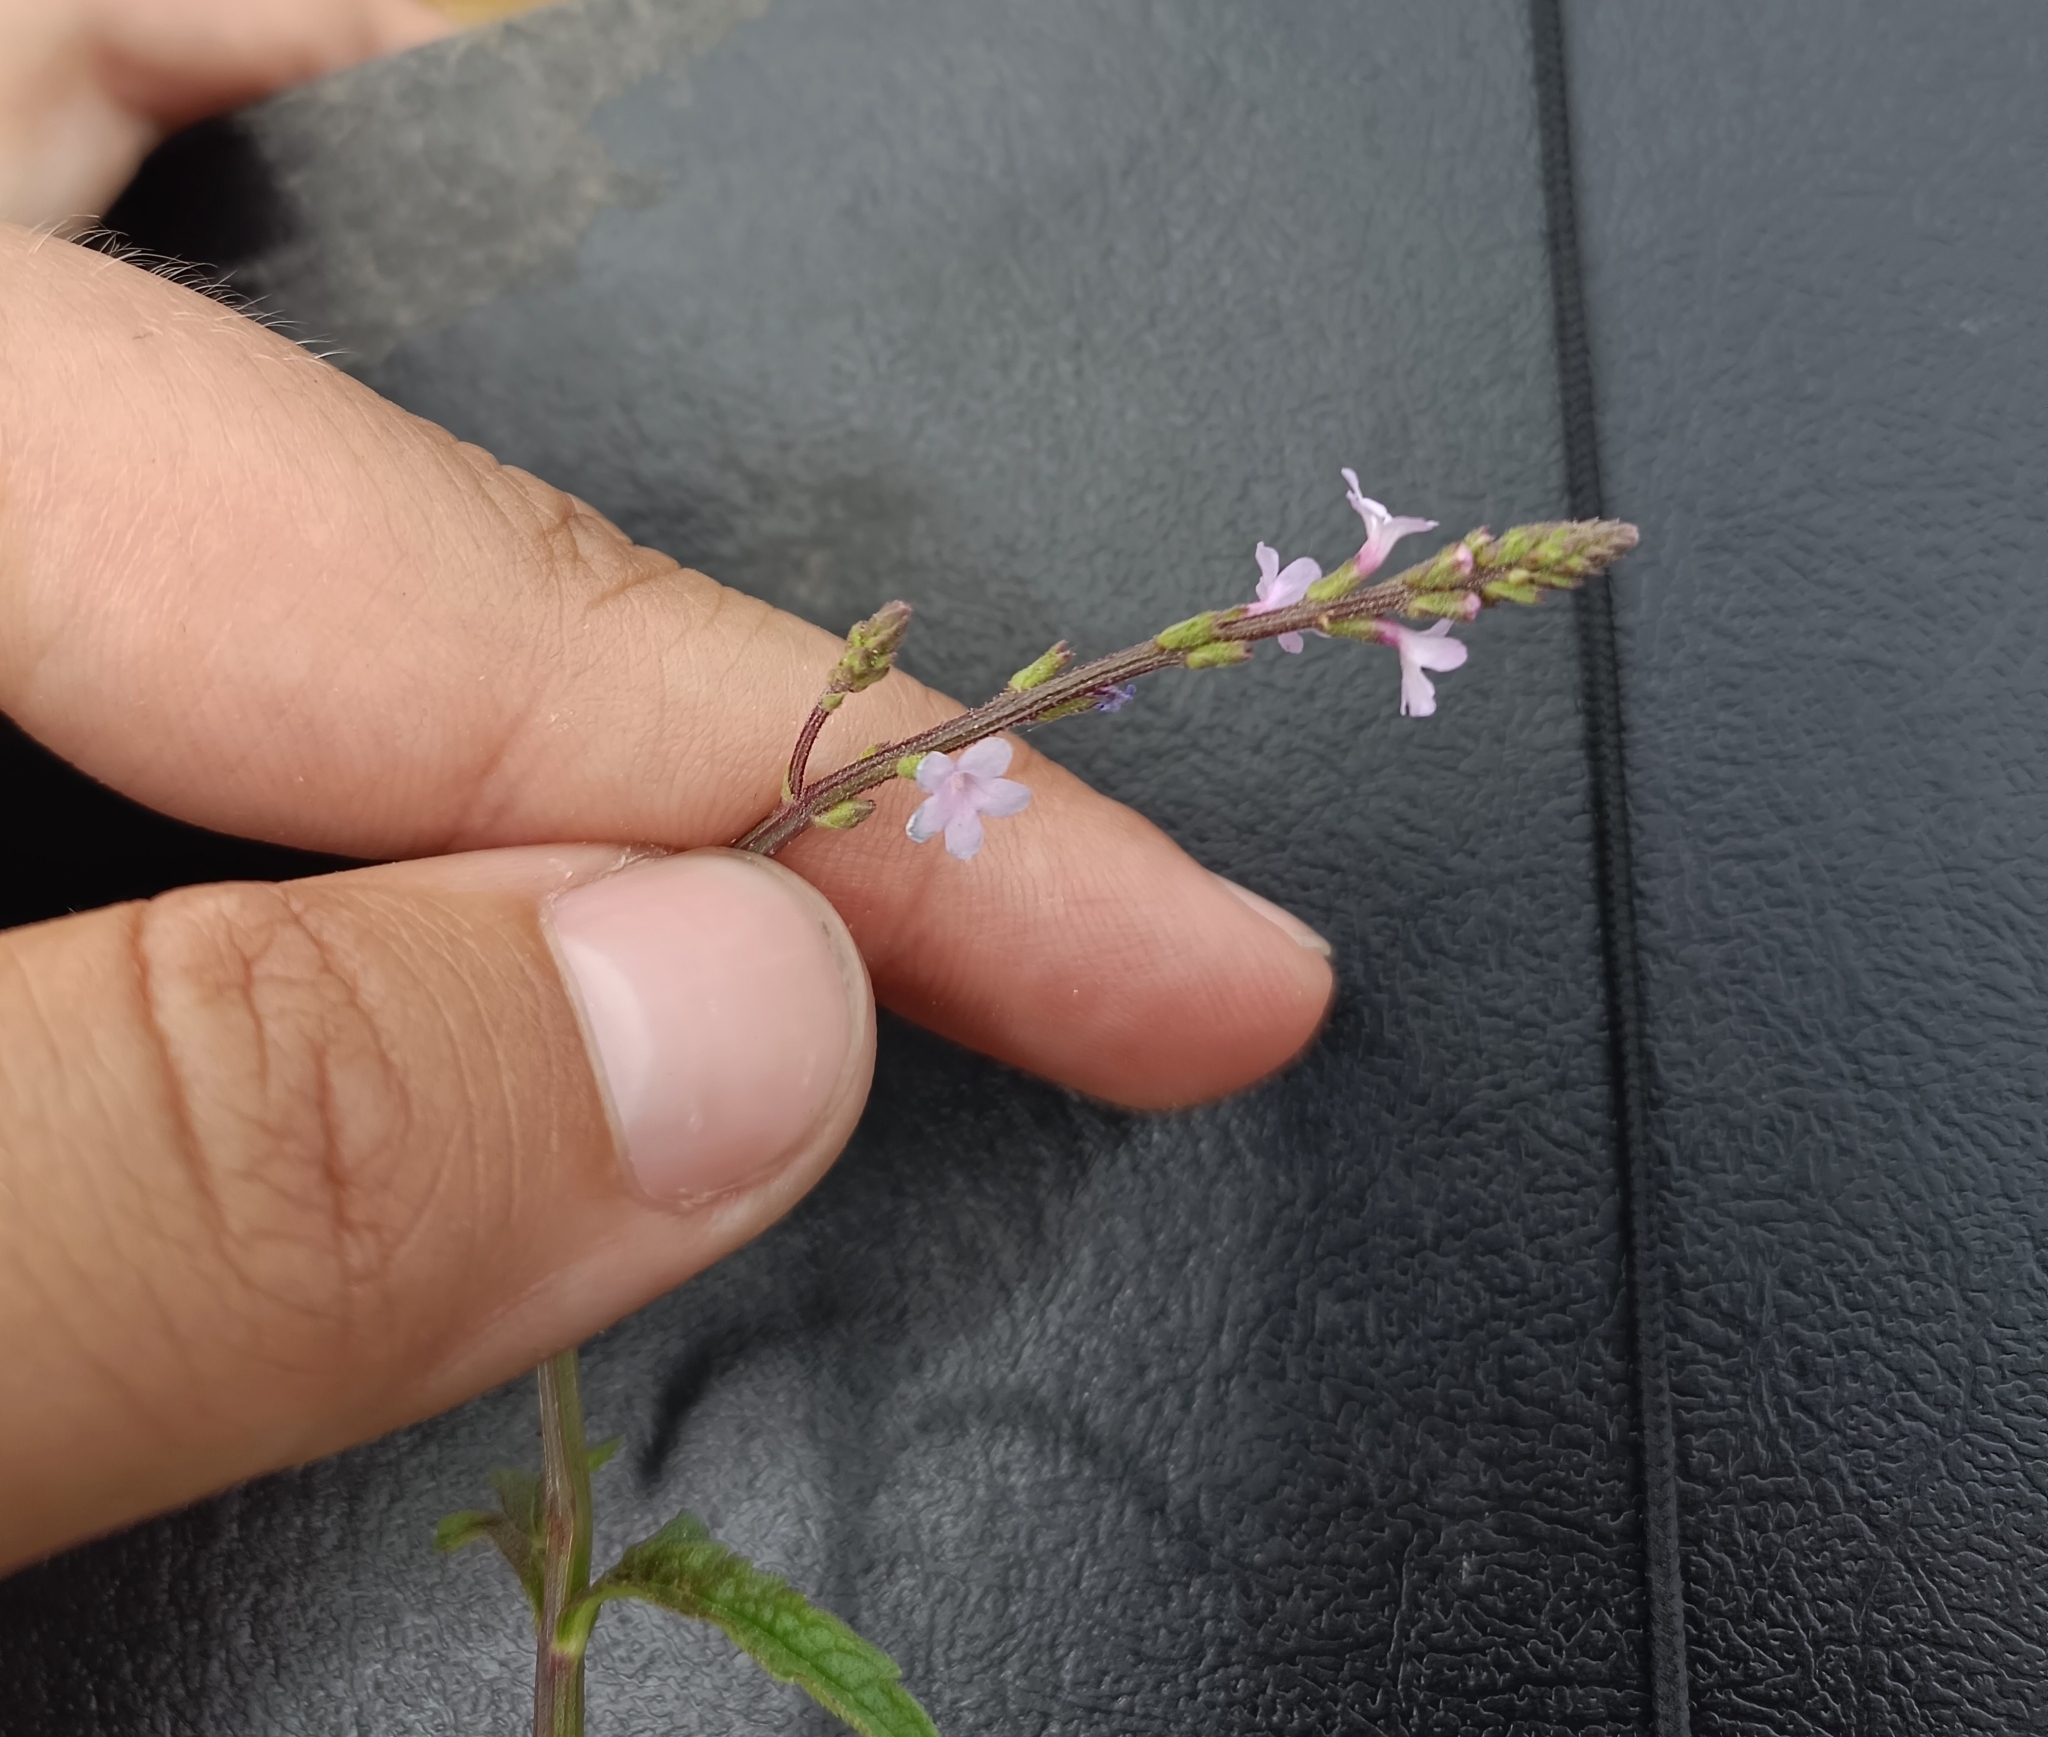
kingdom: Plantae
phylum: Tracheophyta
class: Magnoliopsida
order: Lamiales
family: Verbenaceae
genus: Verbena
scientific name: Verbena officinalis
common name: Vervain
